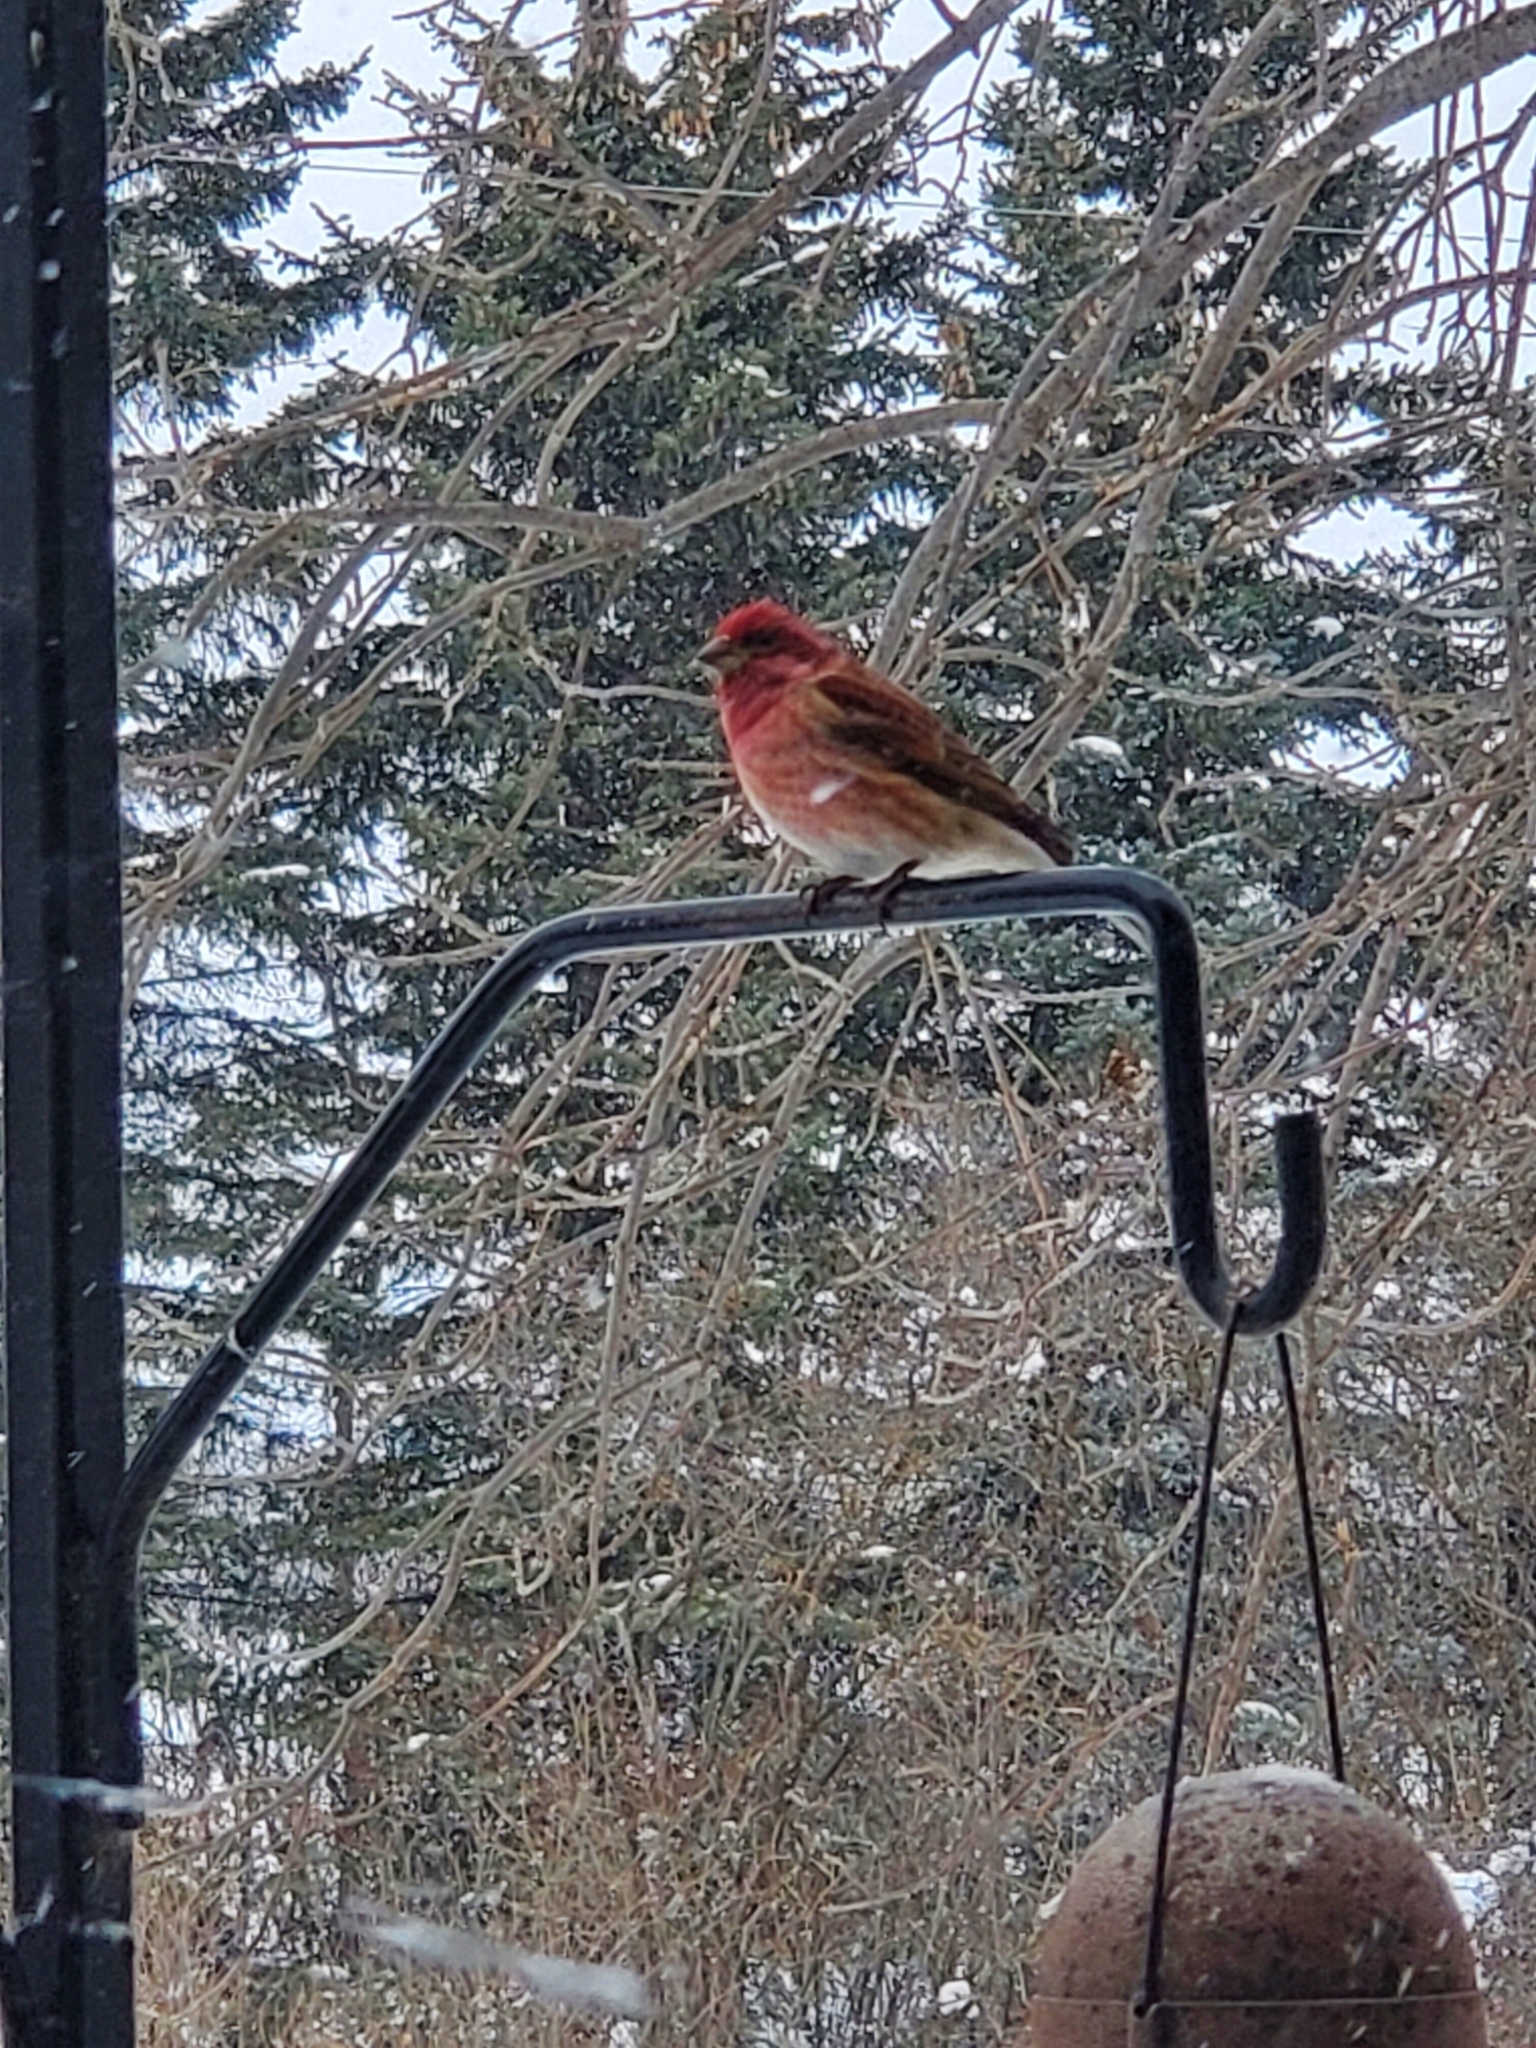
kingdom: Animalia
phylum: Chordata
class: Aves
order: Passeriformes
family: Fringillidae
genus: Haemorhous
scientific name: Haemorhous purpureus
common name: Purple finch
